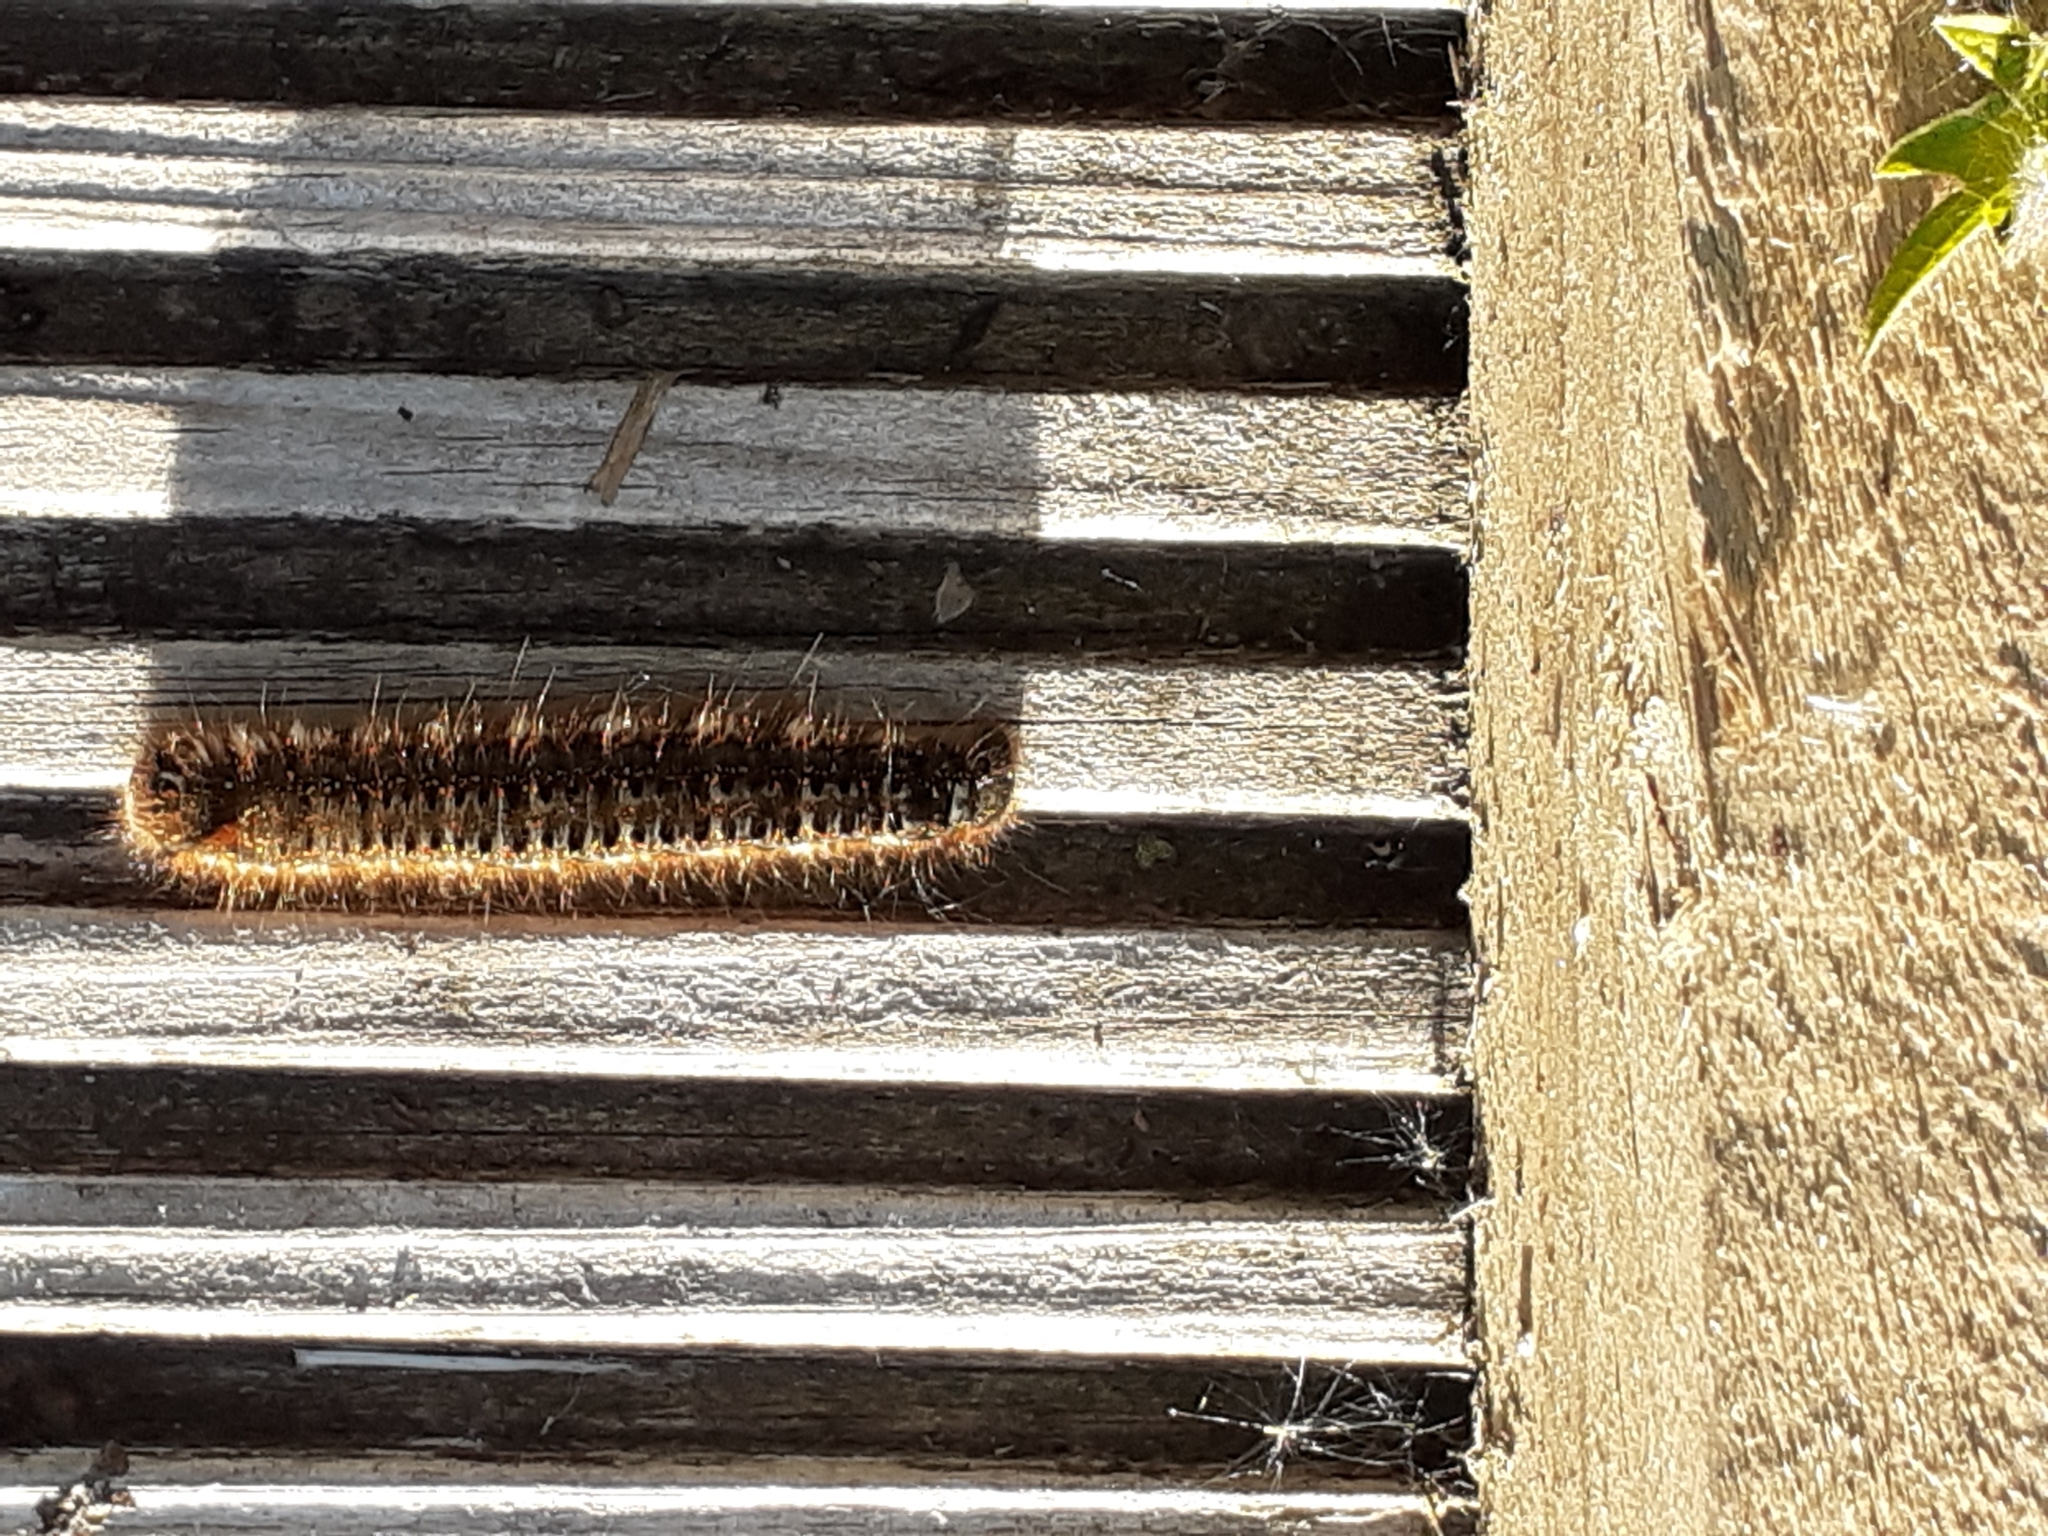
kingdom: Animalia
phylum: Arthropoda
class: Insecta
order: Lepidoptera
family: Lasiocampidae
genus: Euthrix
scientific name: Euthrix potatoria
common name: Drinker
